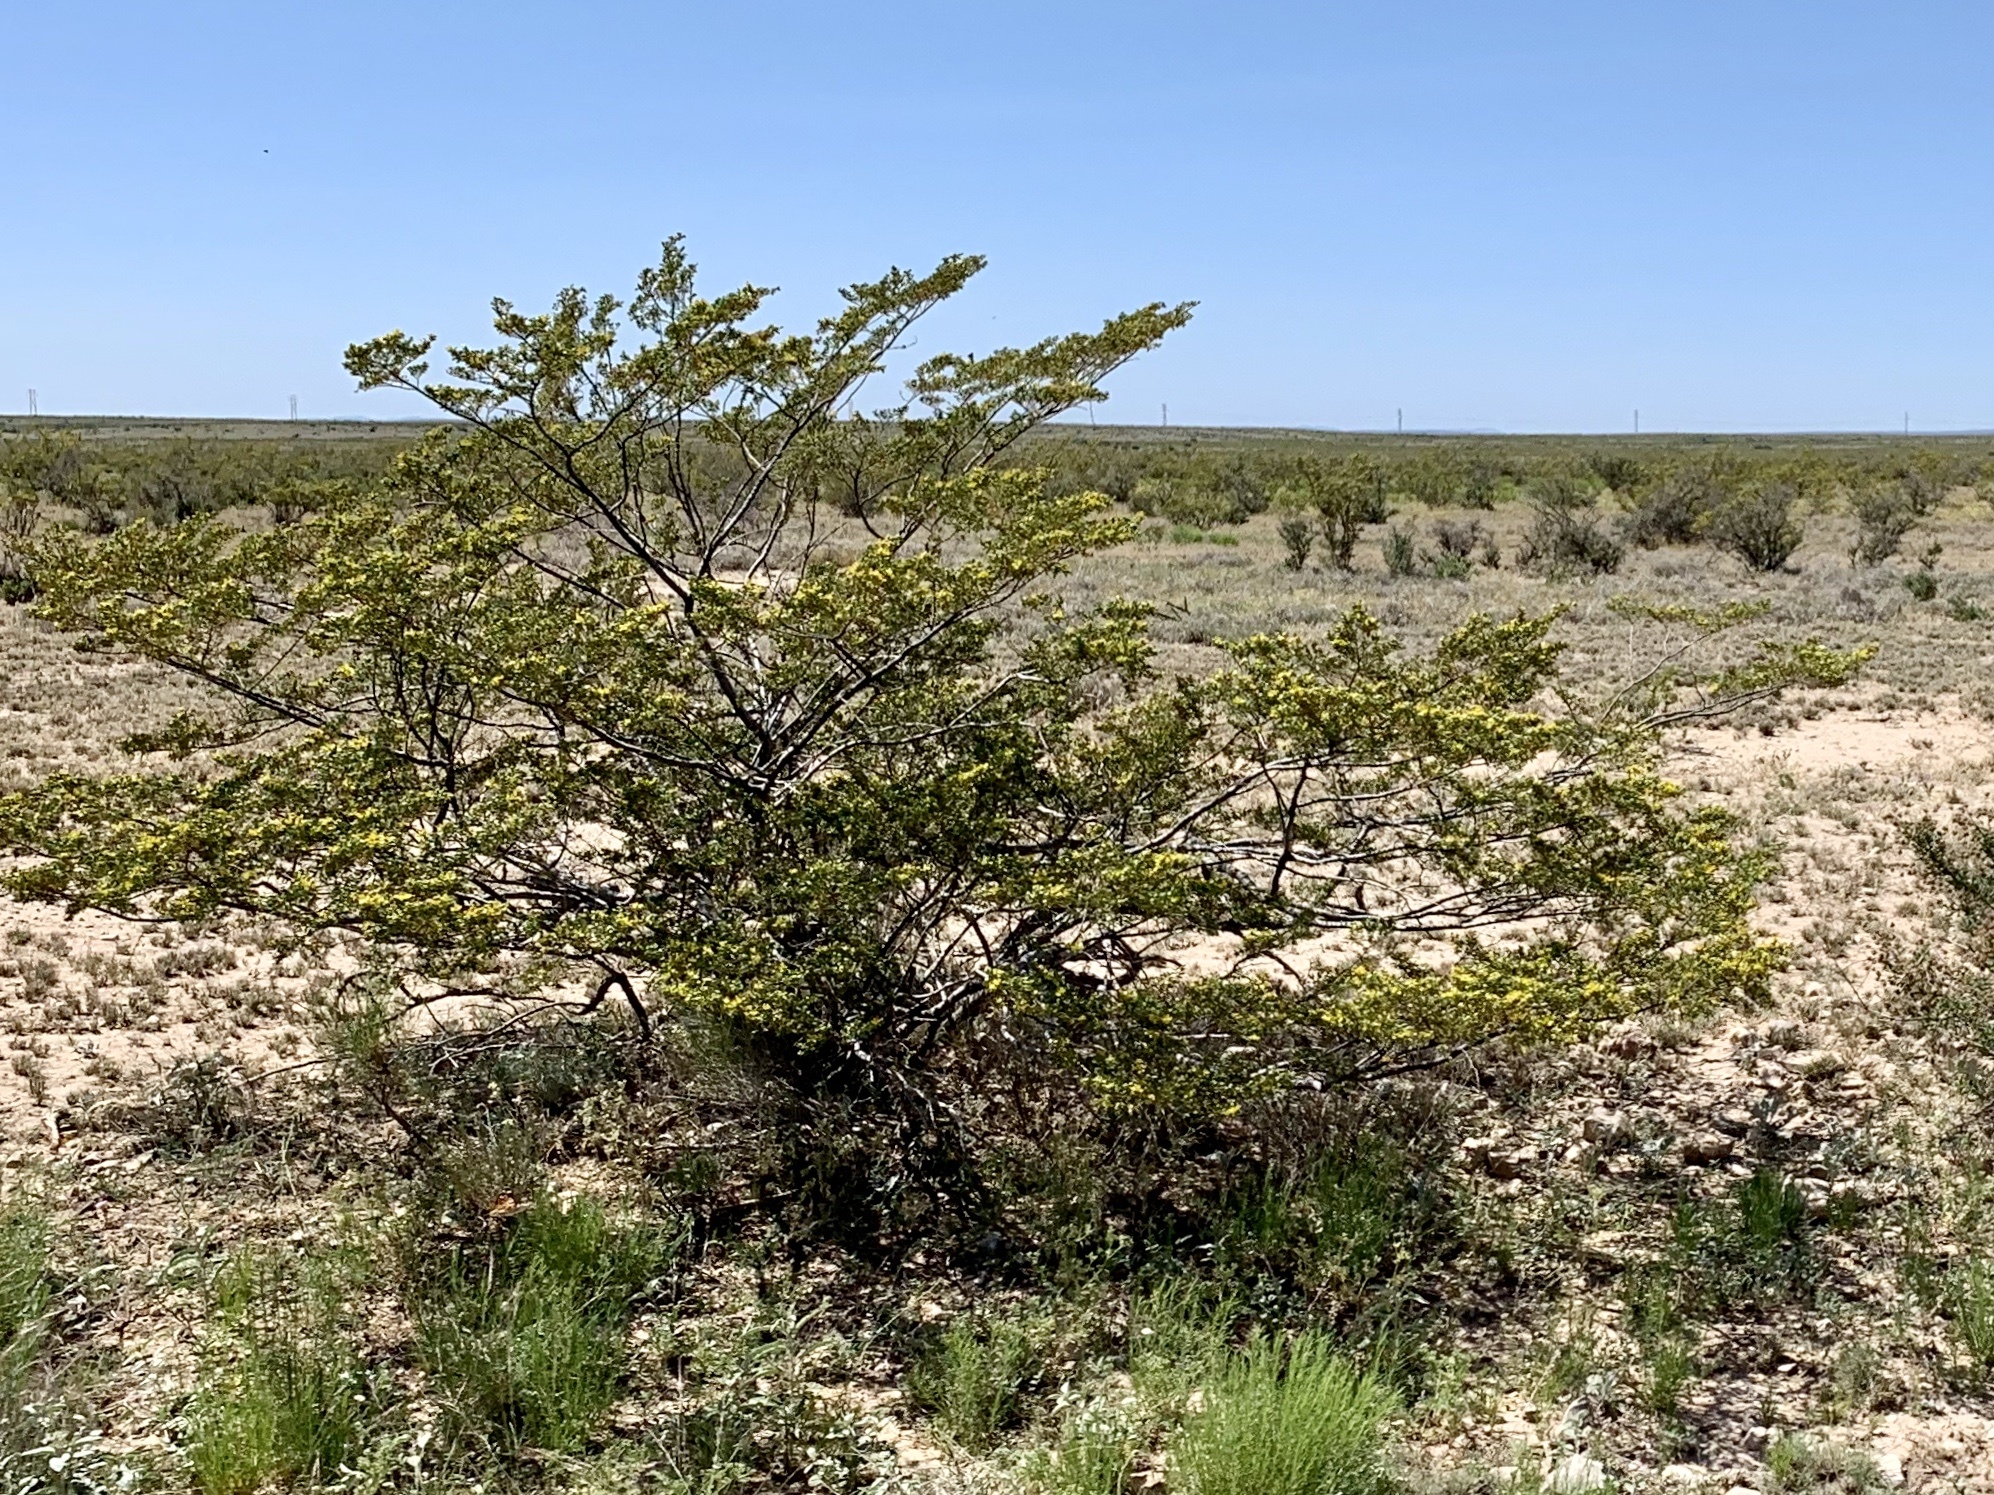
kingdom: Plantae
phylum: Tracheophyta
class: Magnoliopsida
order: Zygophyllales
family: Zygophyllaceae
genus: Larrea
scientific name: Larrea tridentata
